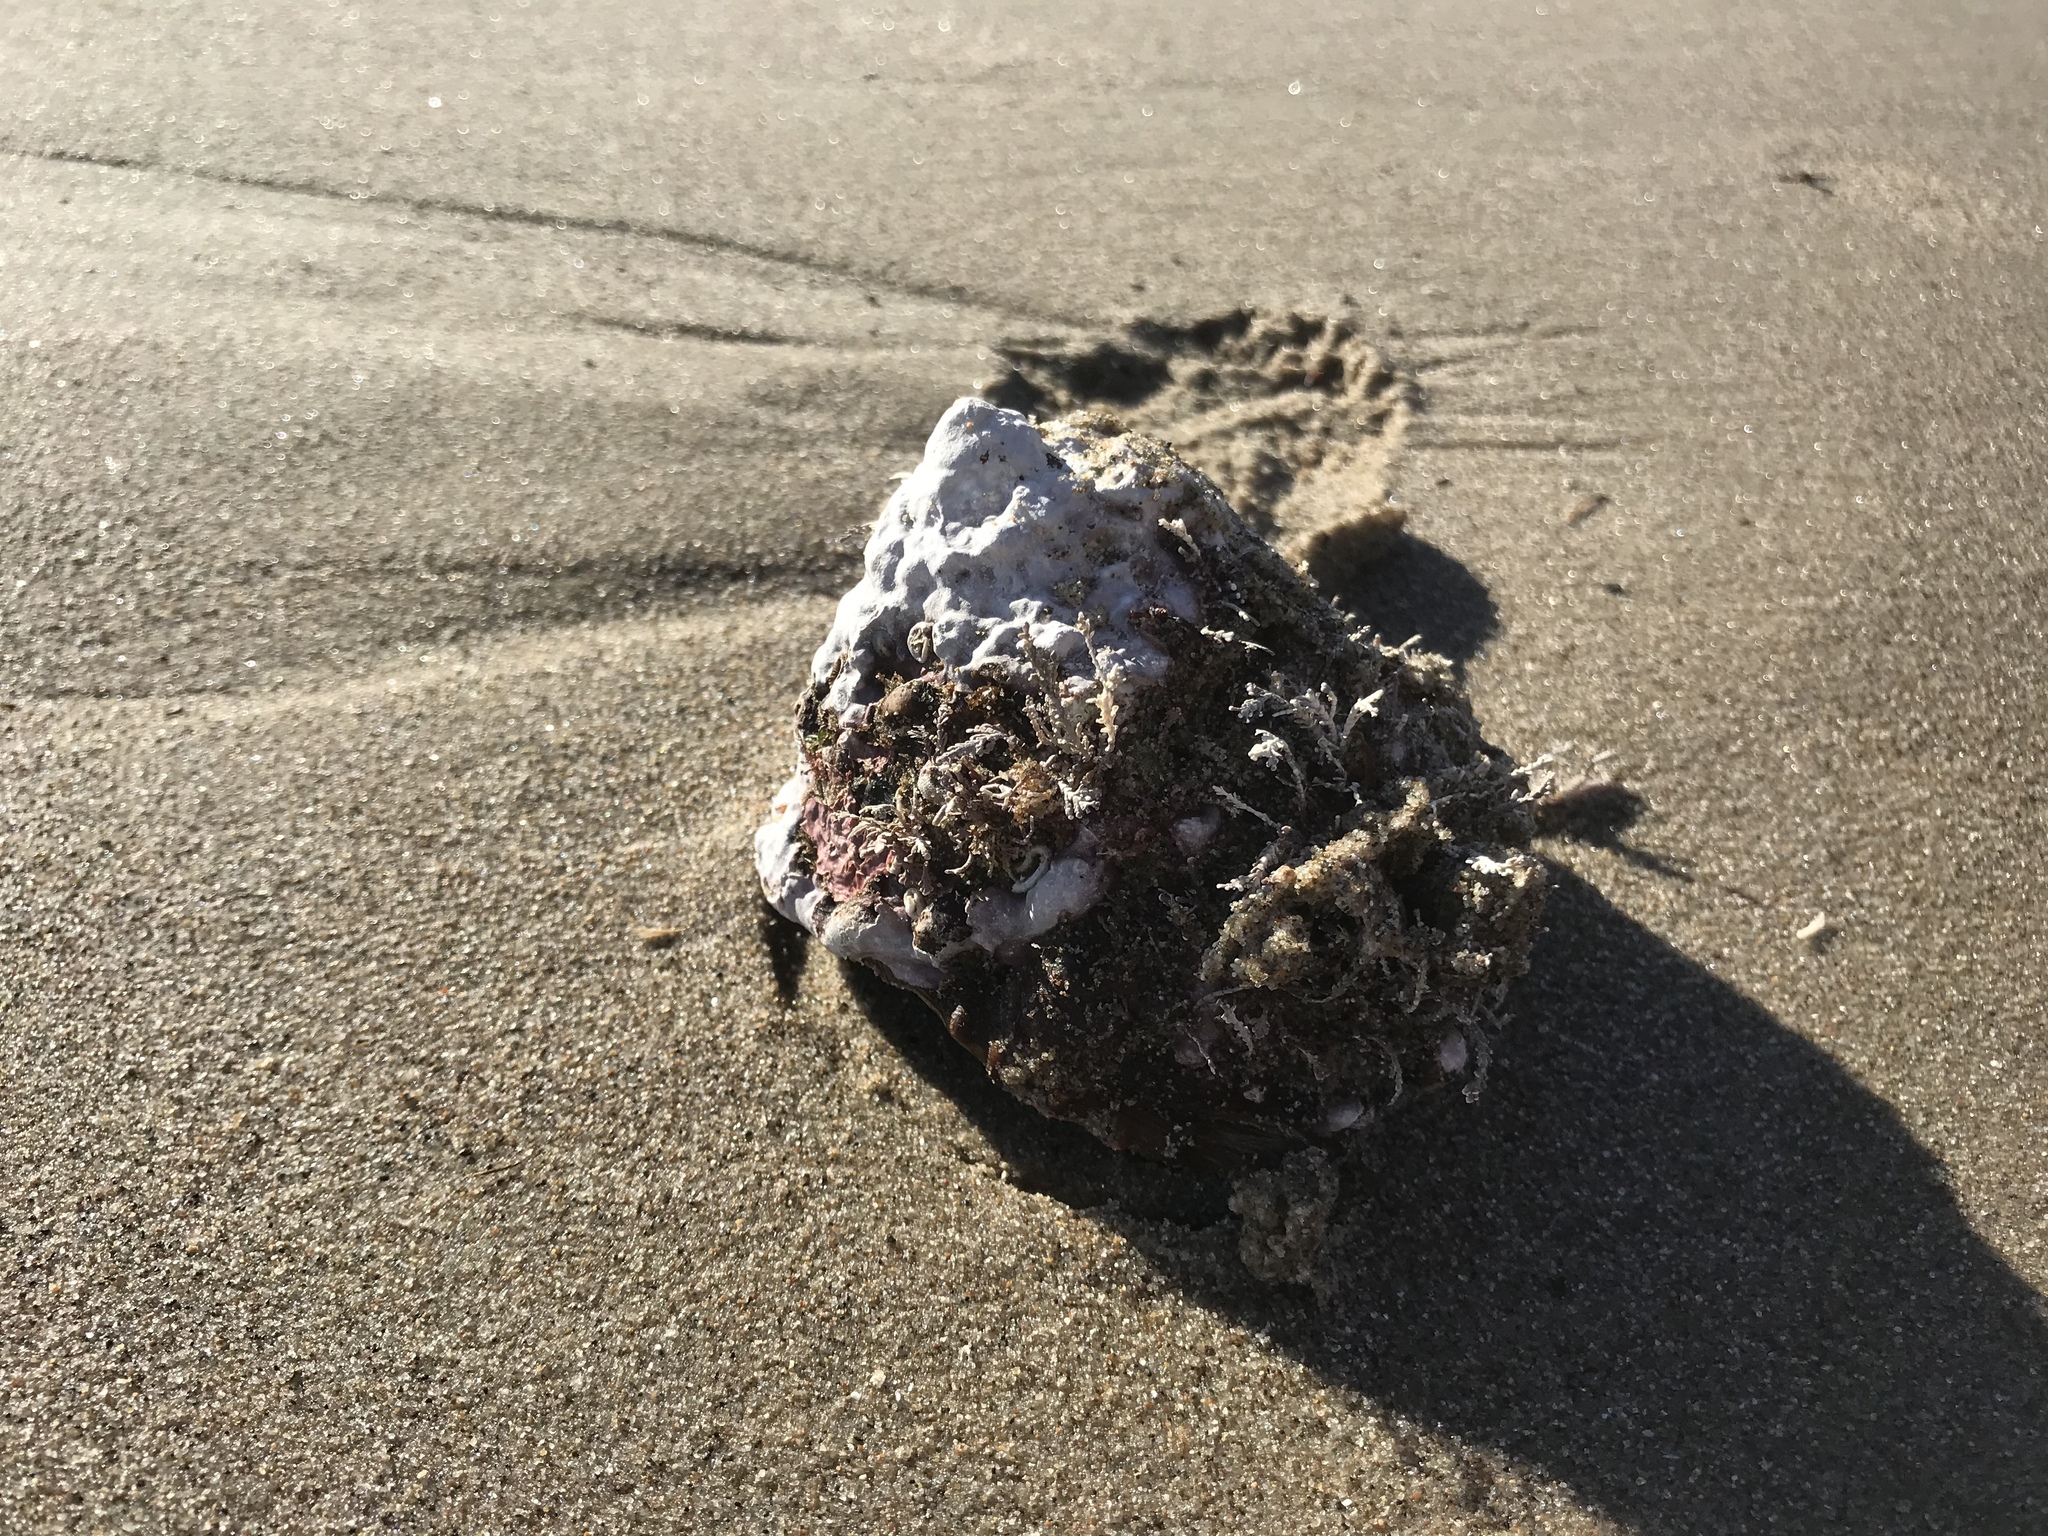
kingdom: Animalia
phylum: Mollusca
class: Gastropoda
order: Trochida
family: Turbinidae
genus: Megastraea
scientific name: Megastraea undosa
